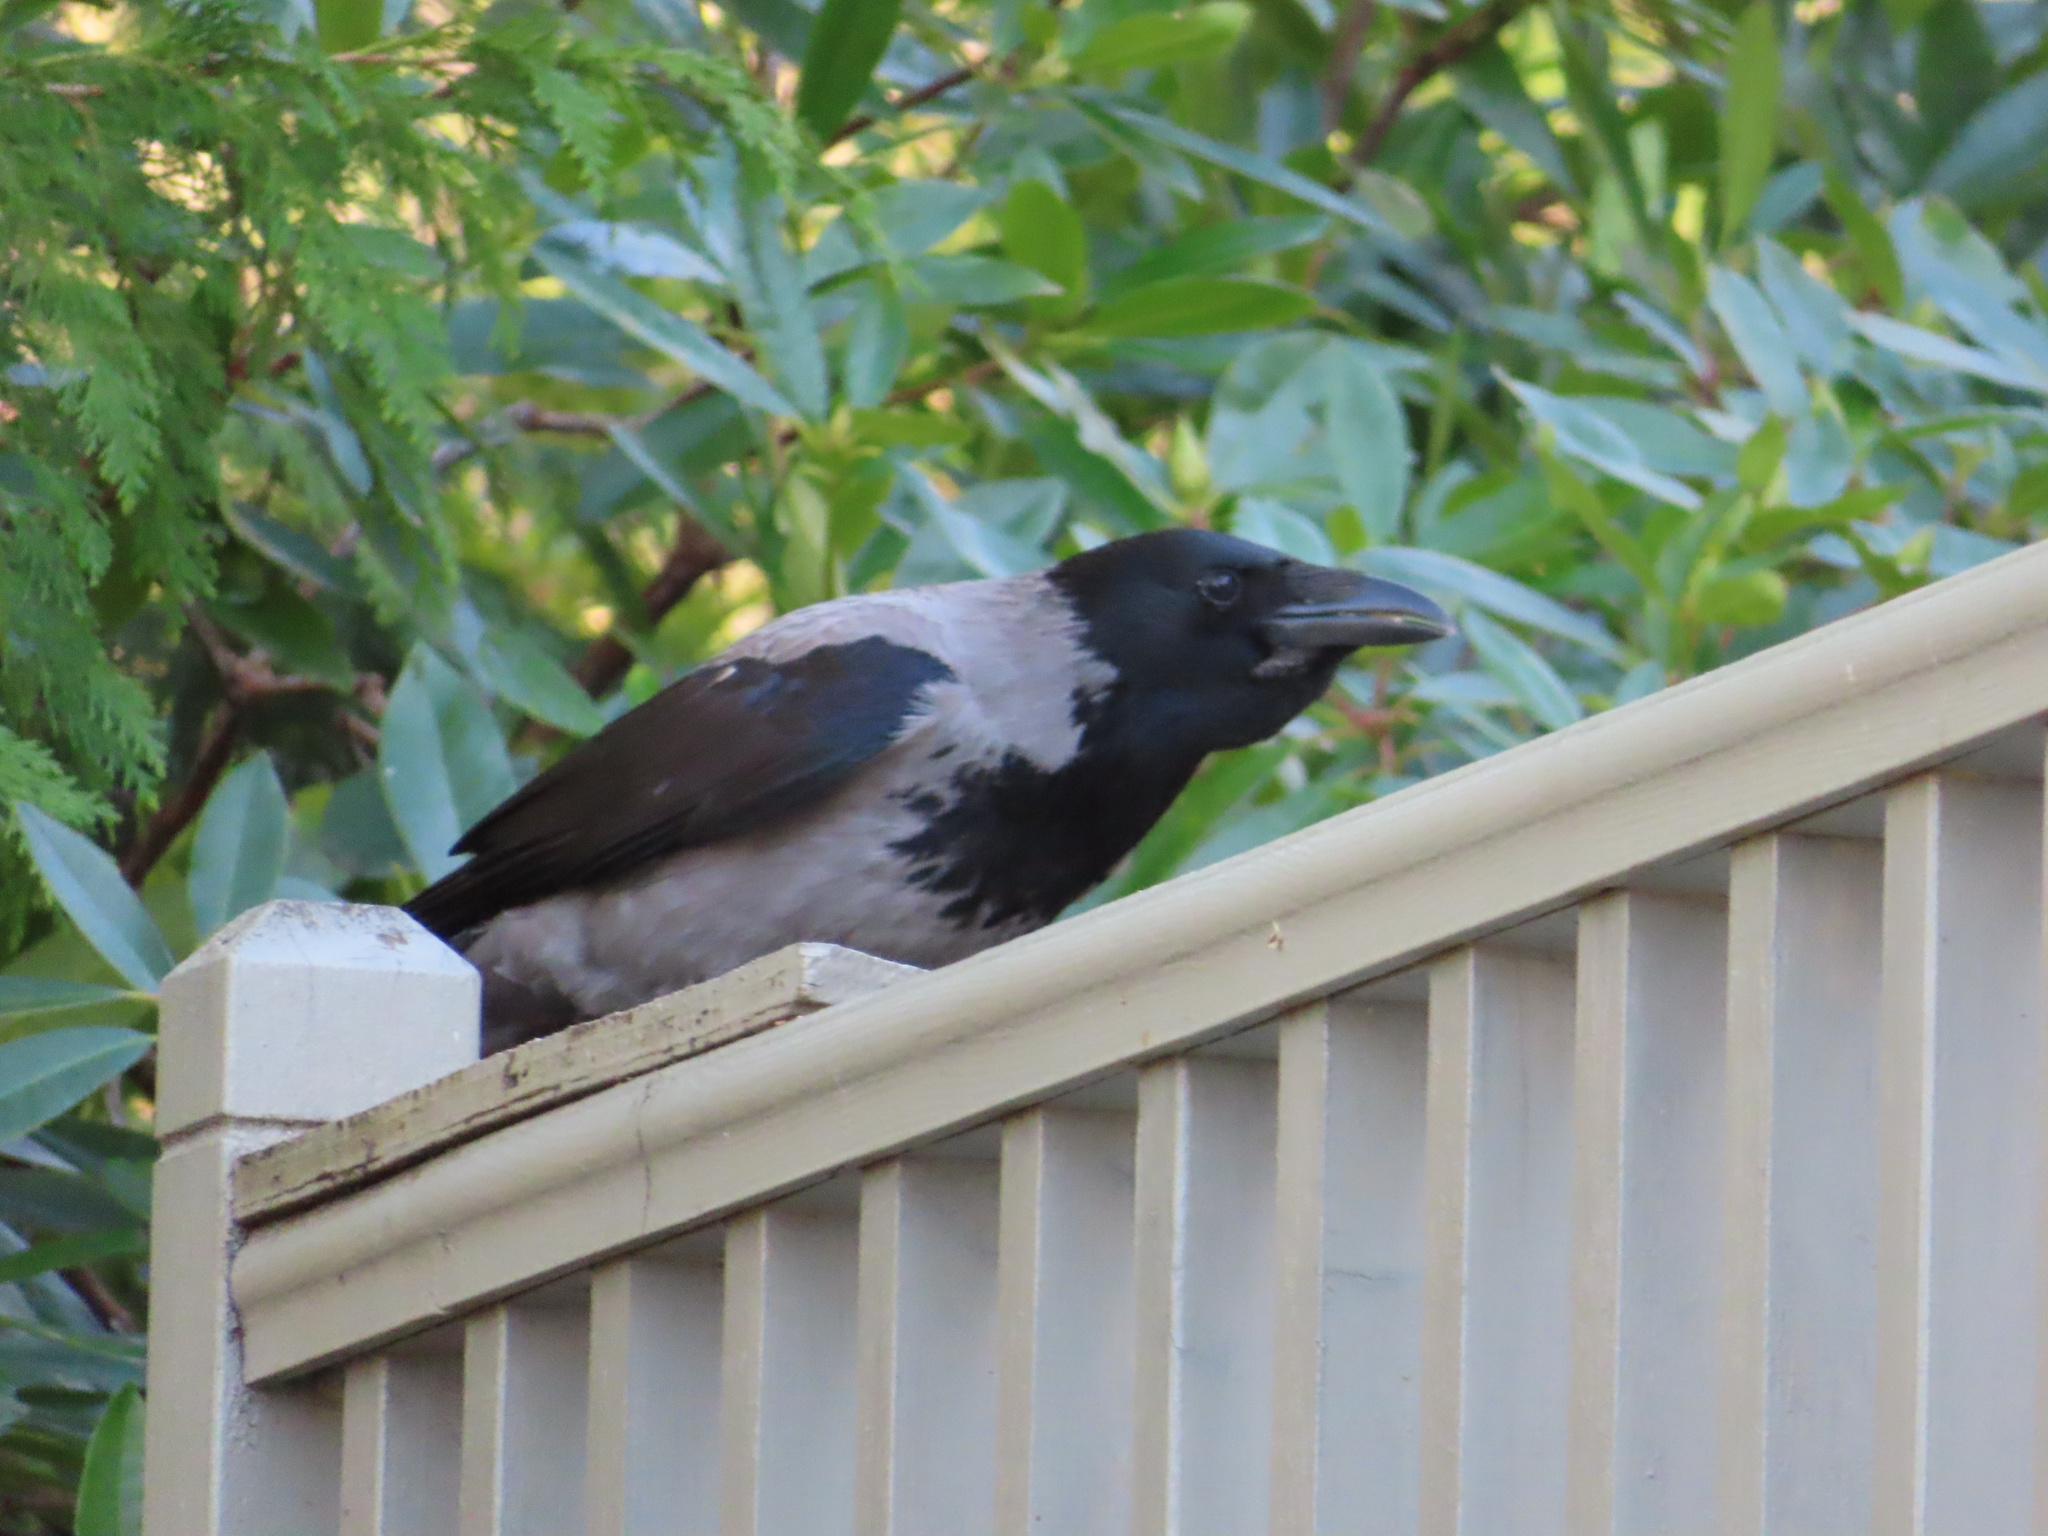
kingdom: Animalia
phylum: Chordata
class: Aves
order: Passeriformes
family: Corvidae
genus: Corvus
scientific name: Corvus cornix
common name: Hooded crow
